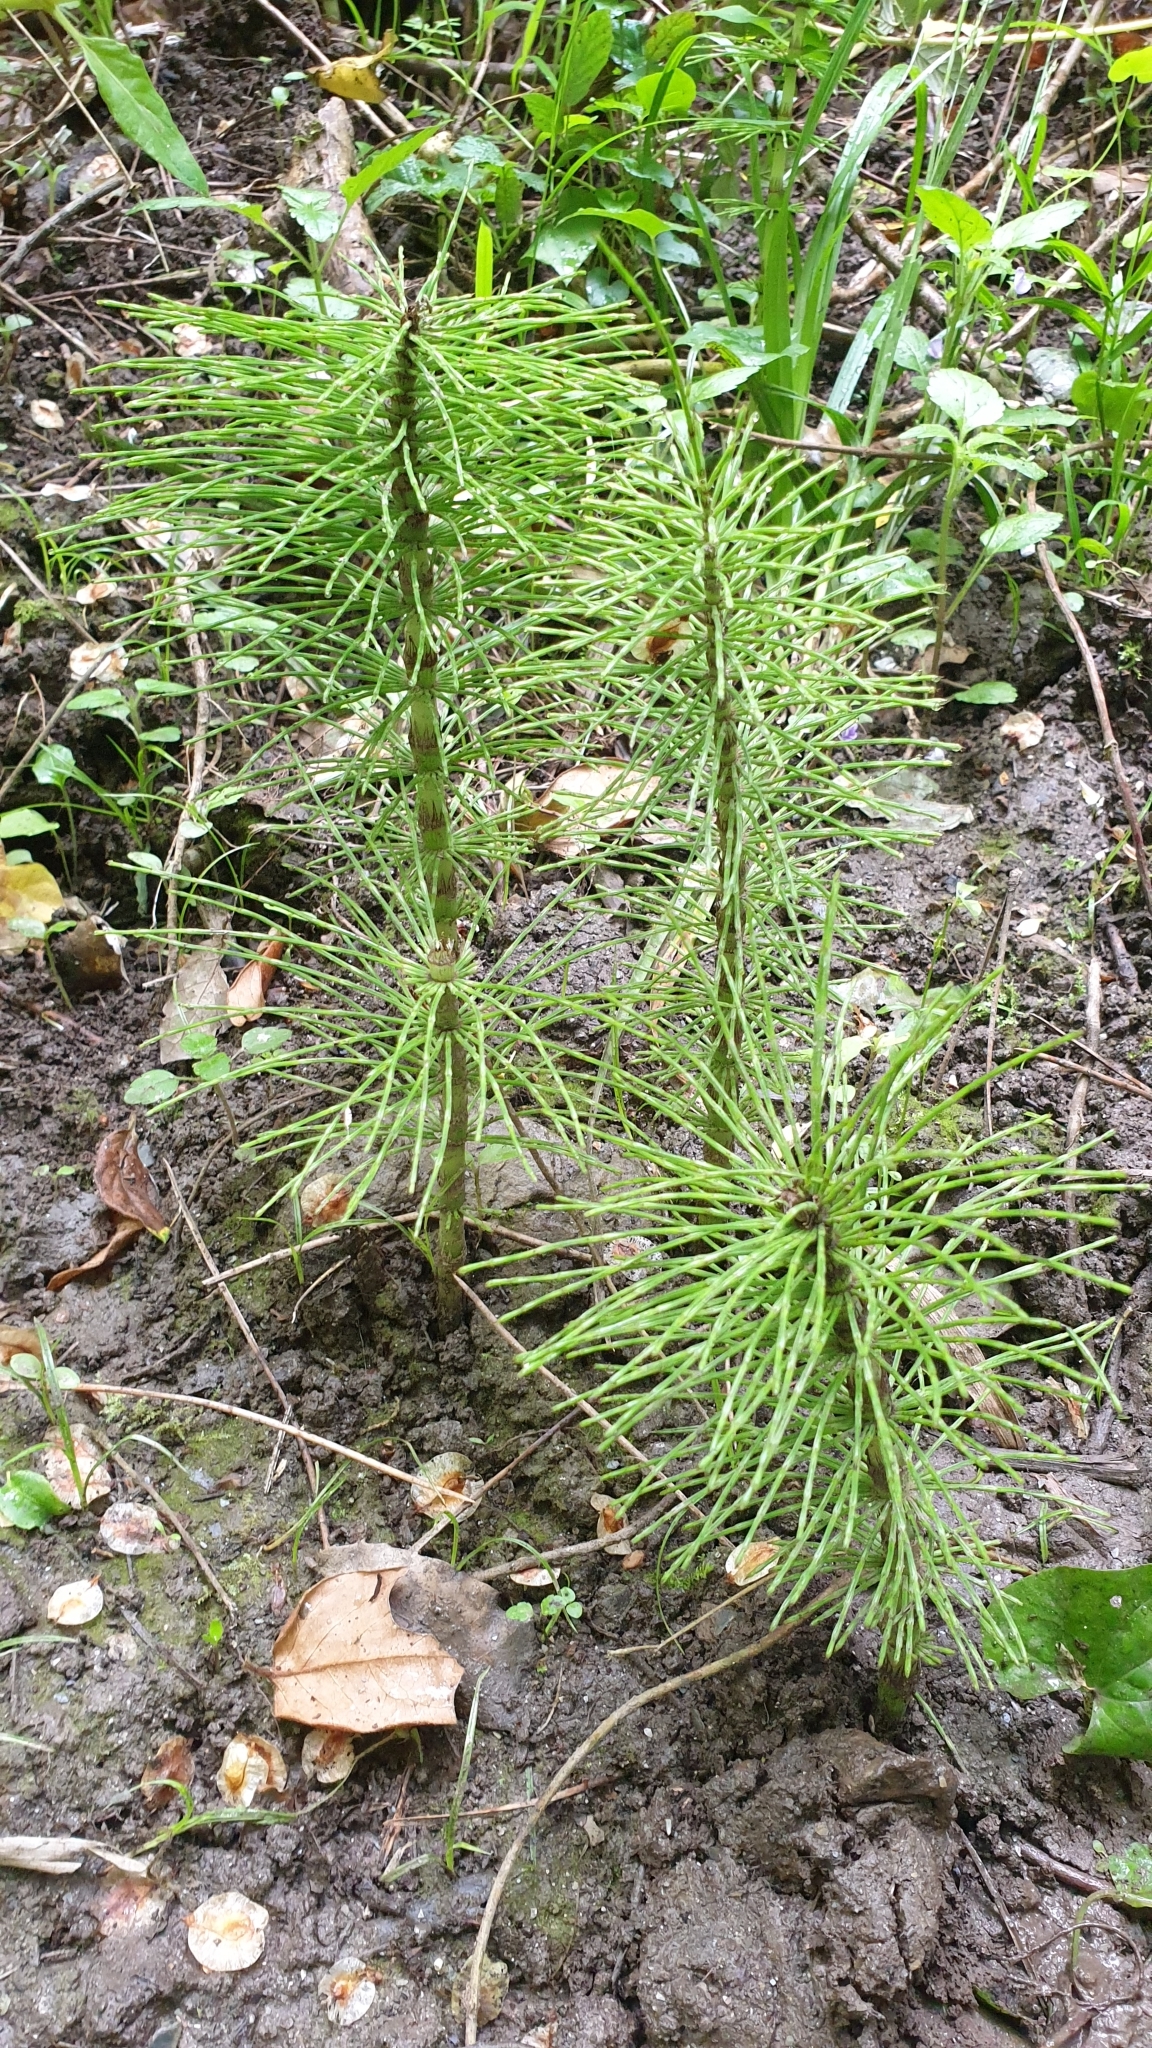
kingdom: Plantae
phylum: Tracheophyta
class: Polypodiopsida
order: Equisetales
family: Equisetaceae
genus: Equisetum
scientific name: Equisetum telmateia
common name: Great horsetail
